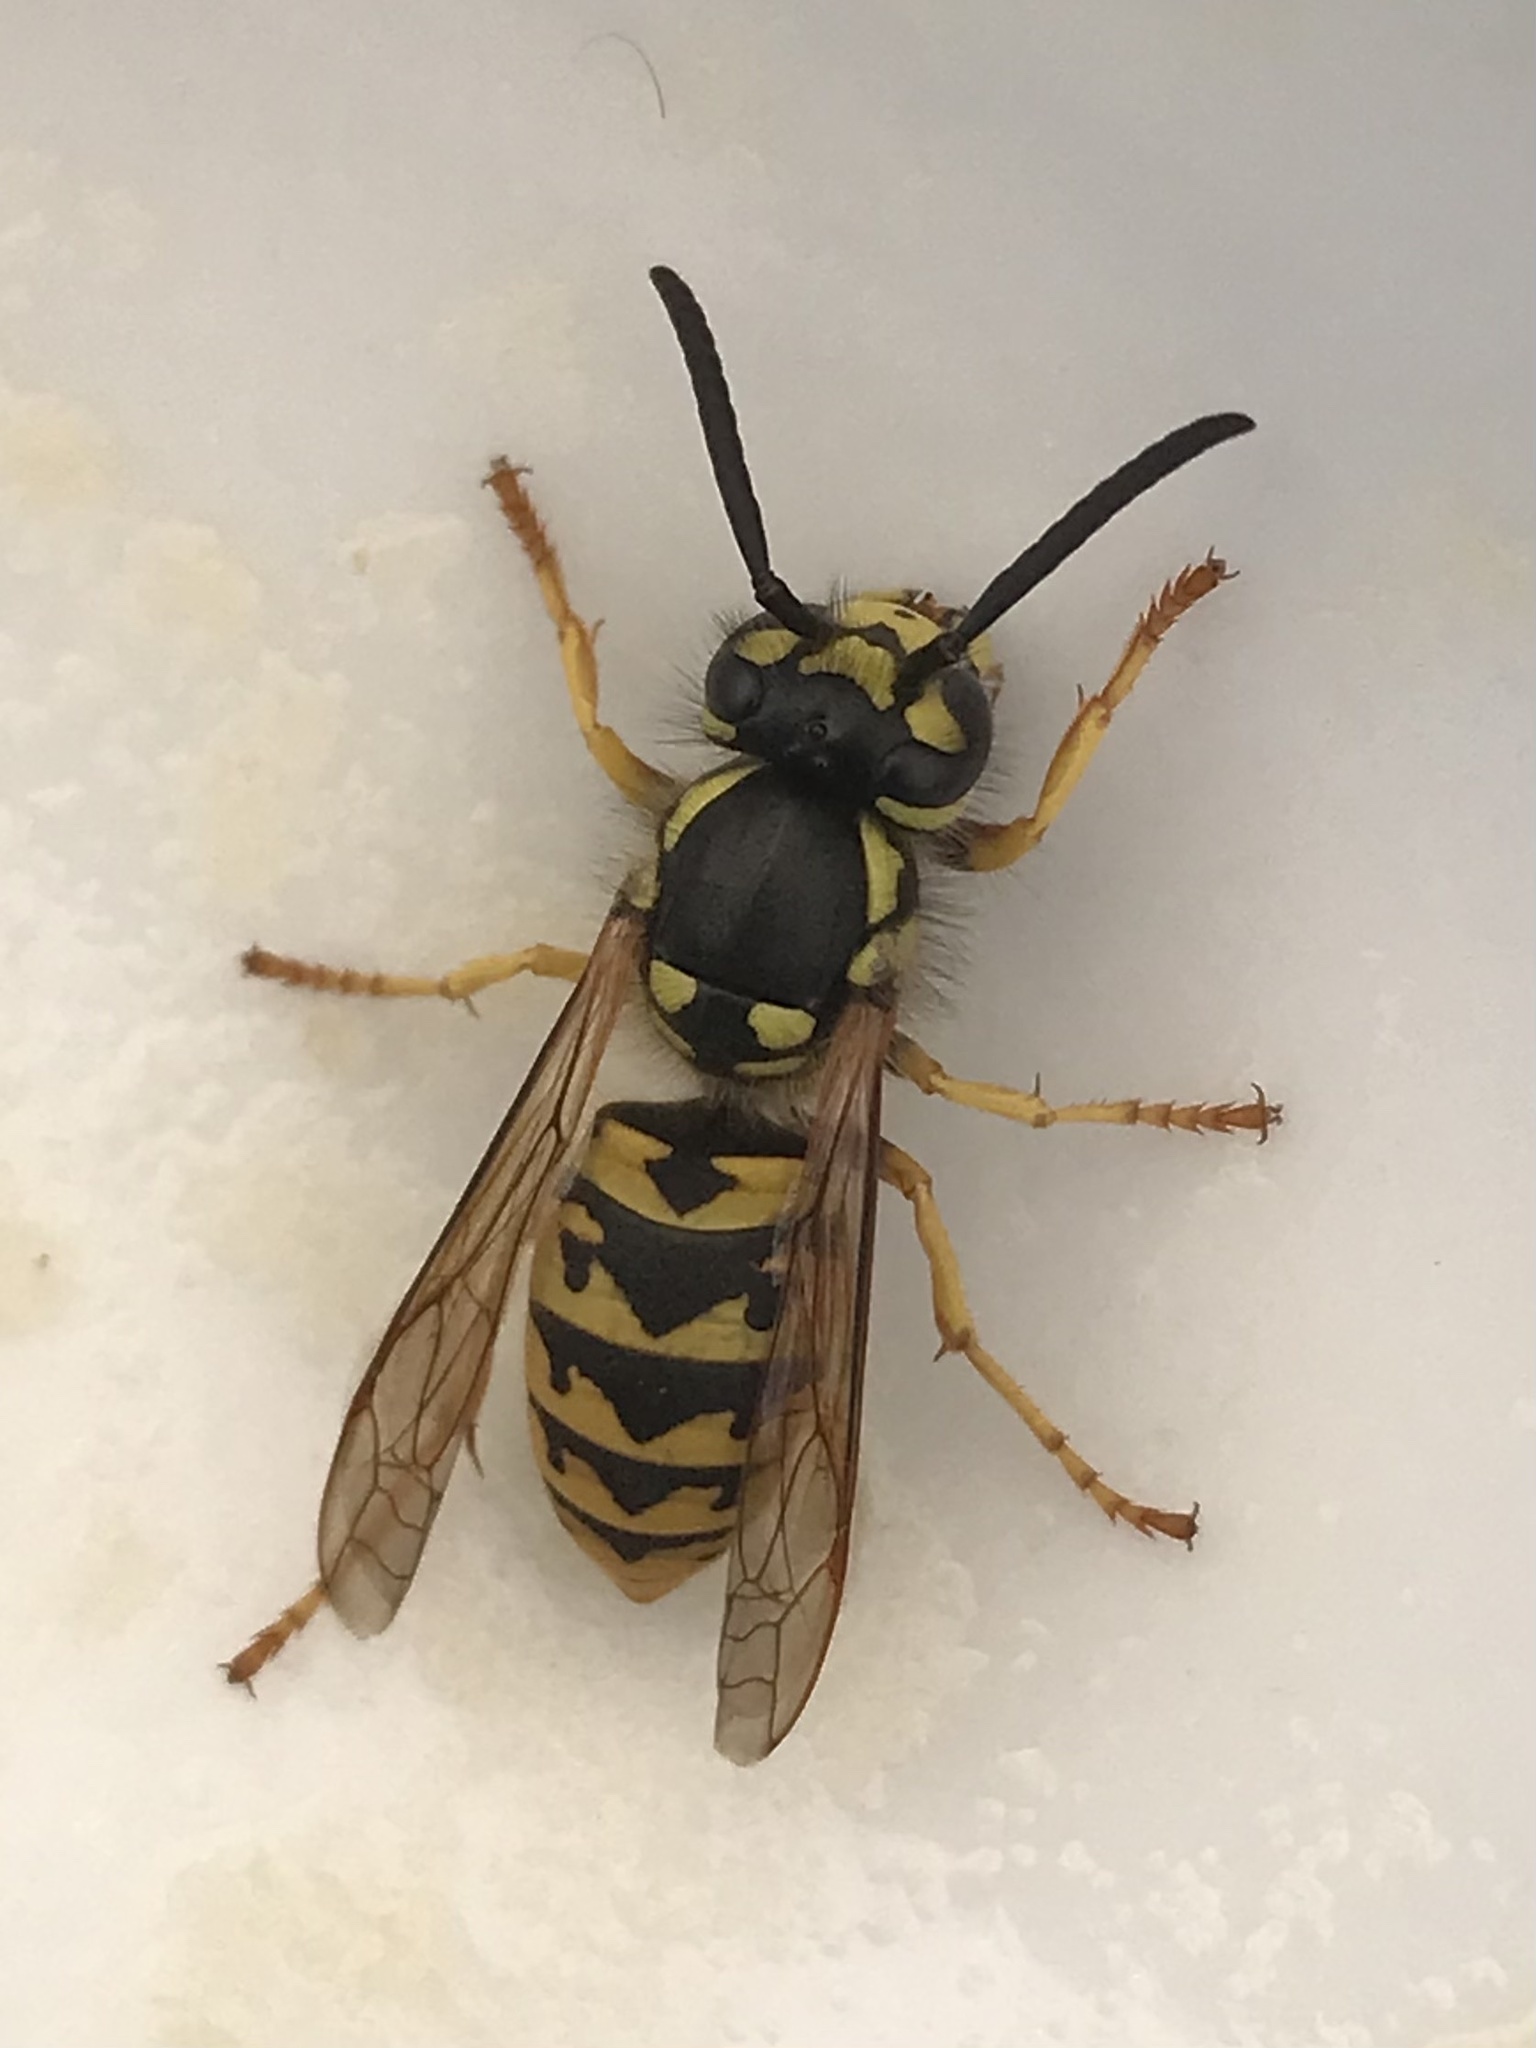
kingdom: Animalia
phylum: Arthropoda
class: Insecta
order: Hymenoptera
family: Vespidae
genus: Vespula
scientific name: Vespula germanica
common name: German wasp
